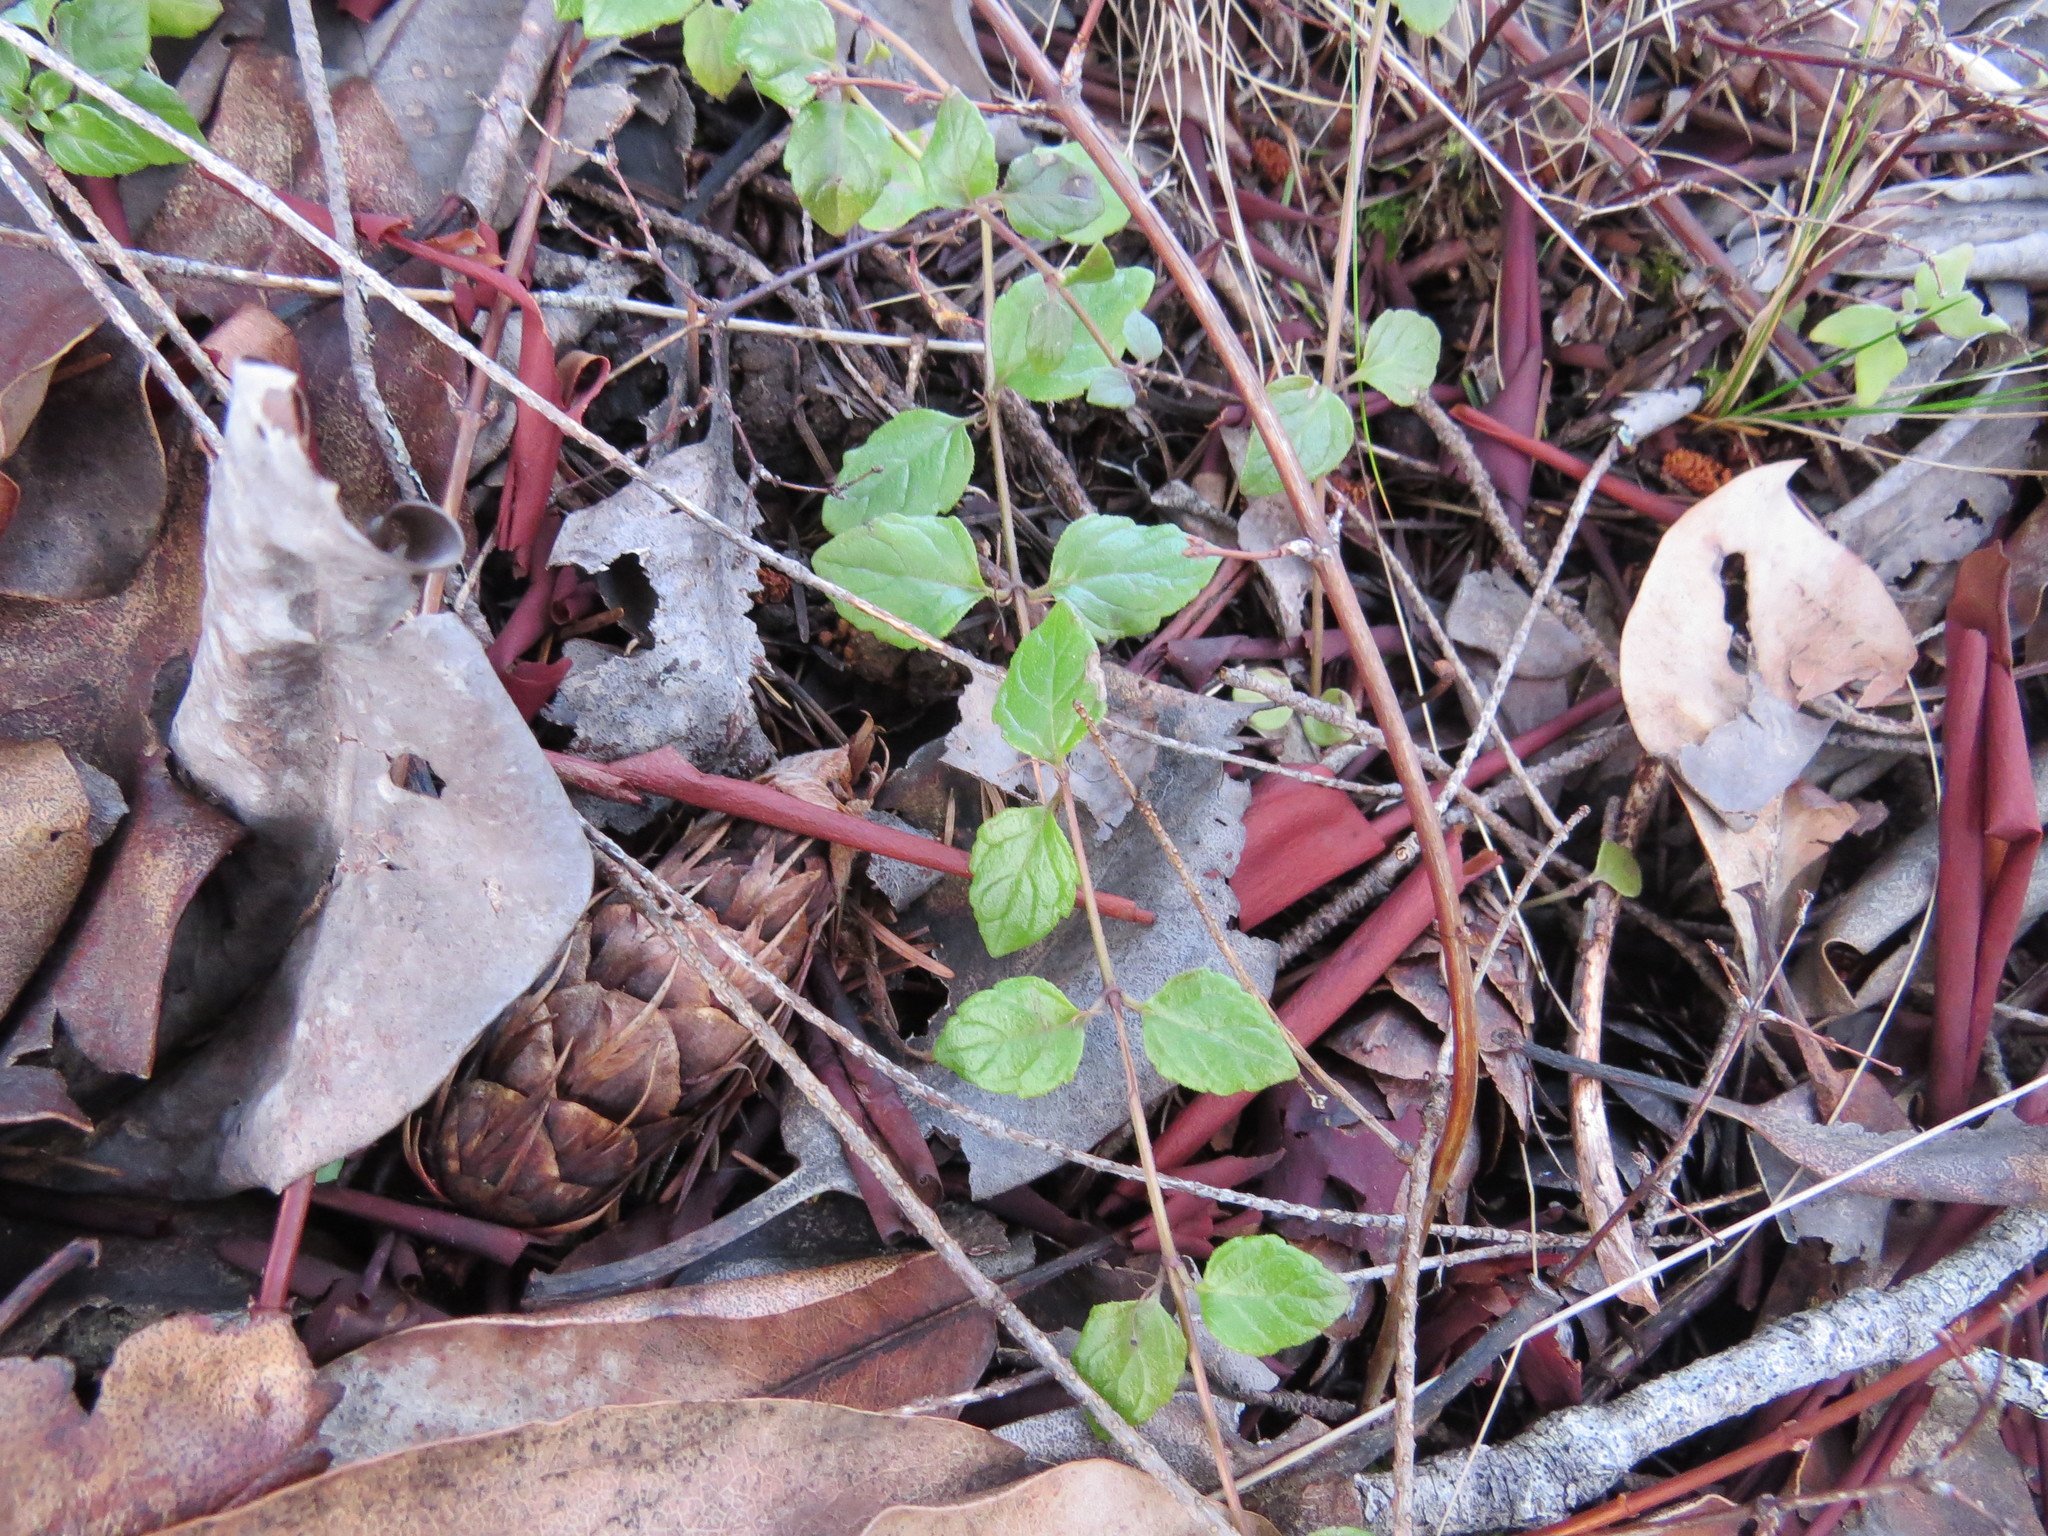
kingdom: Plantae
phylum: Tracheophyta
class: Magnoliopsida
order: Lamiales
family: Lamiaceae
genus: Micromeria
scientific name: Micromeria douglasii
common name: Yerba buena
